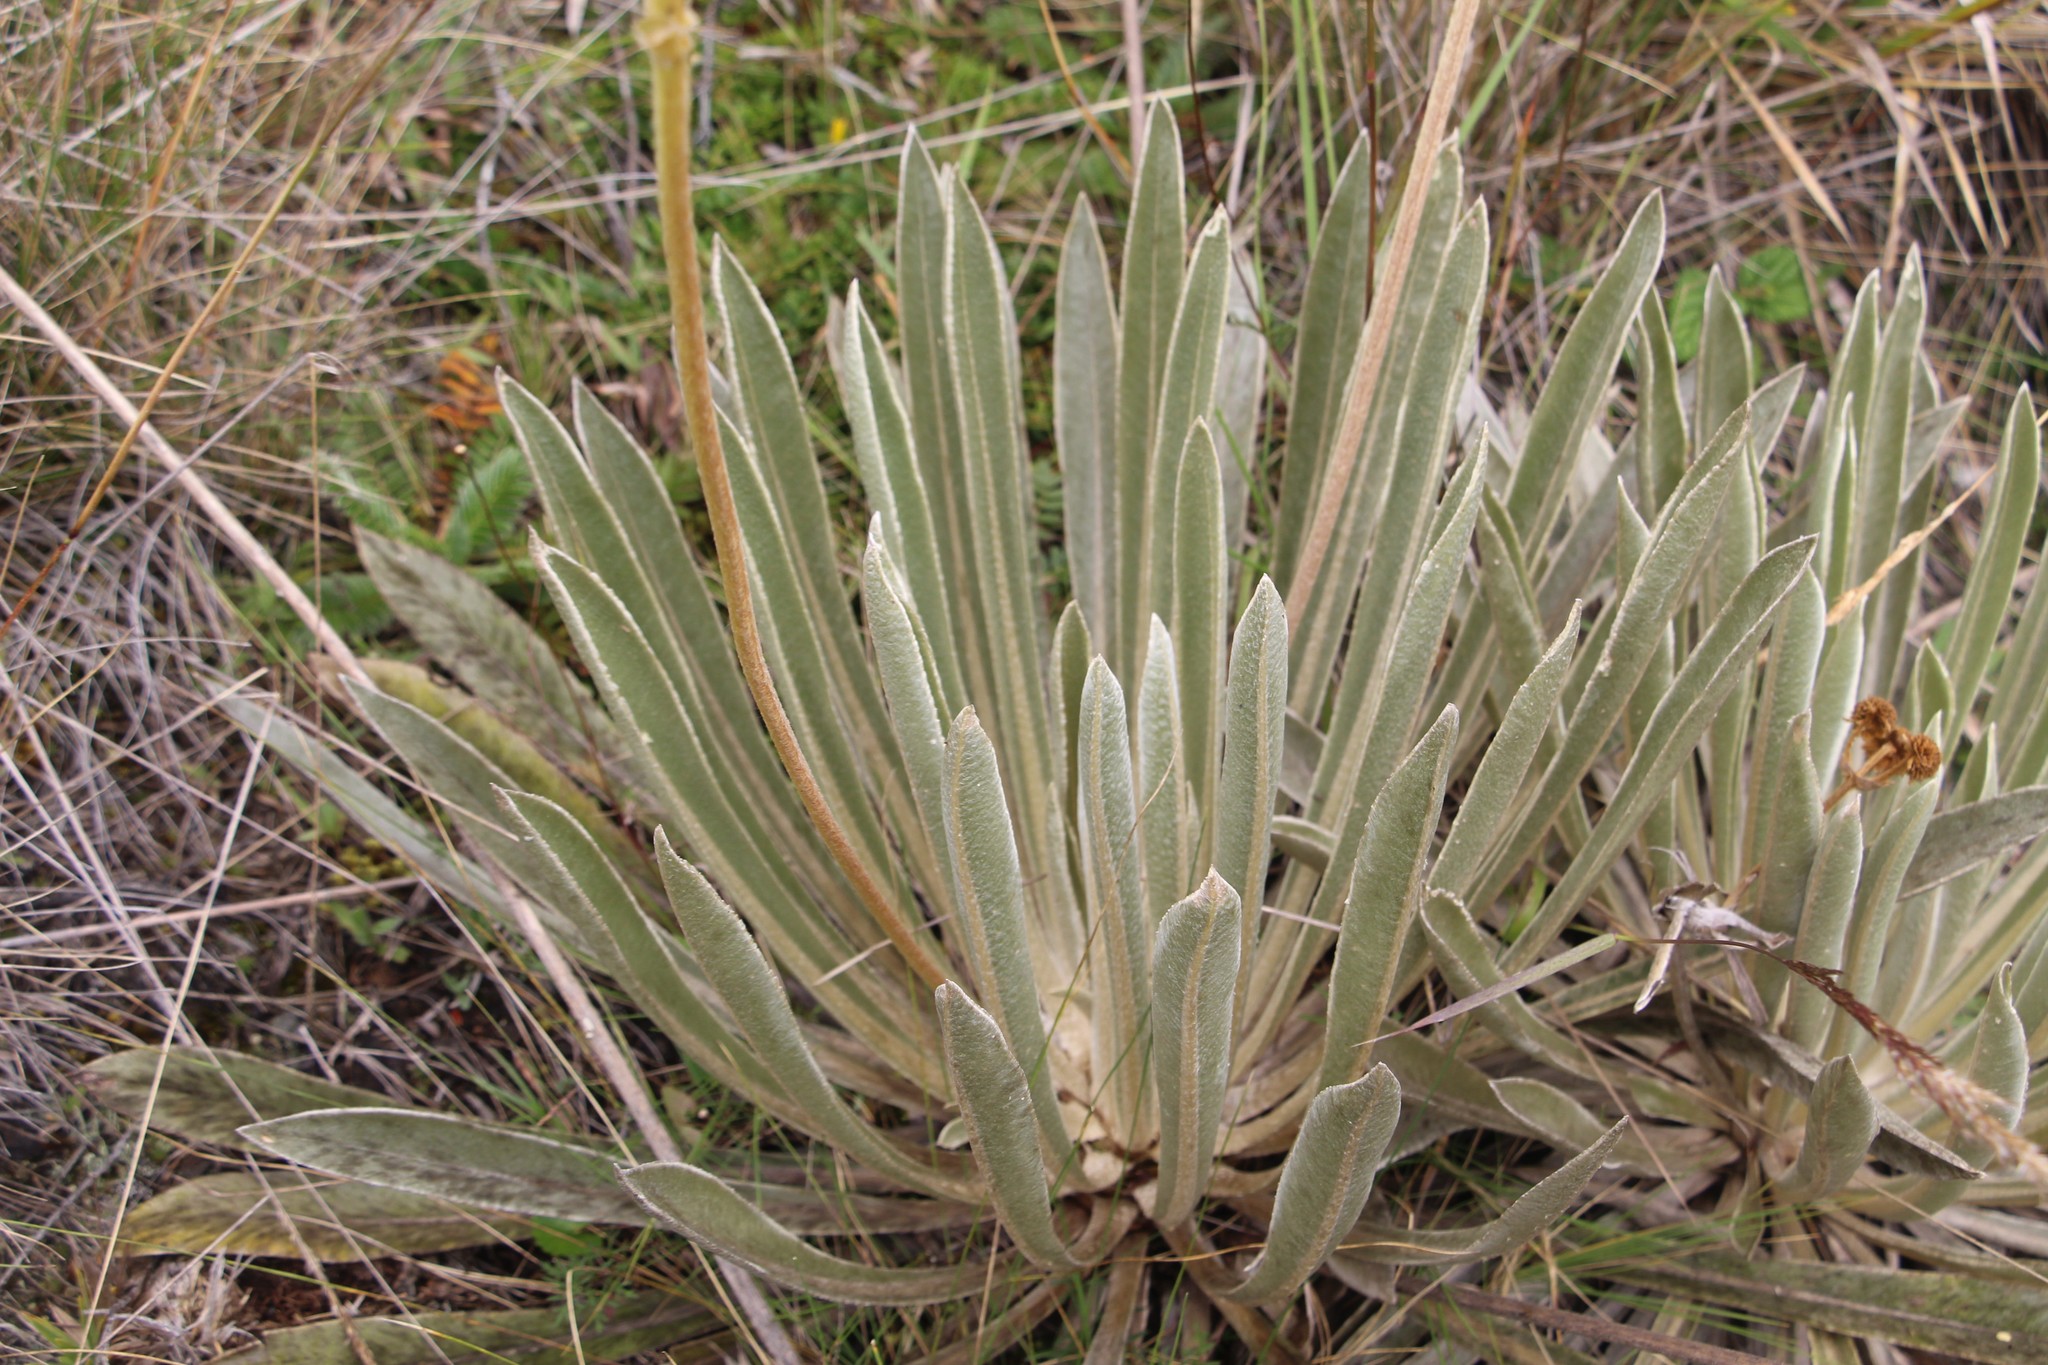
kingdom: Plantae
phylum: Tracheophyta
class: Magnoliopsida
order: Asterales
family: Asteraceae
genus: Espeletia
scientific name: Espeletia boyacensis
